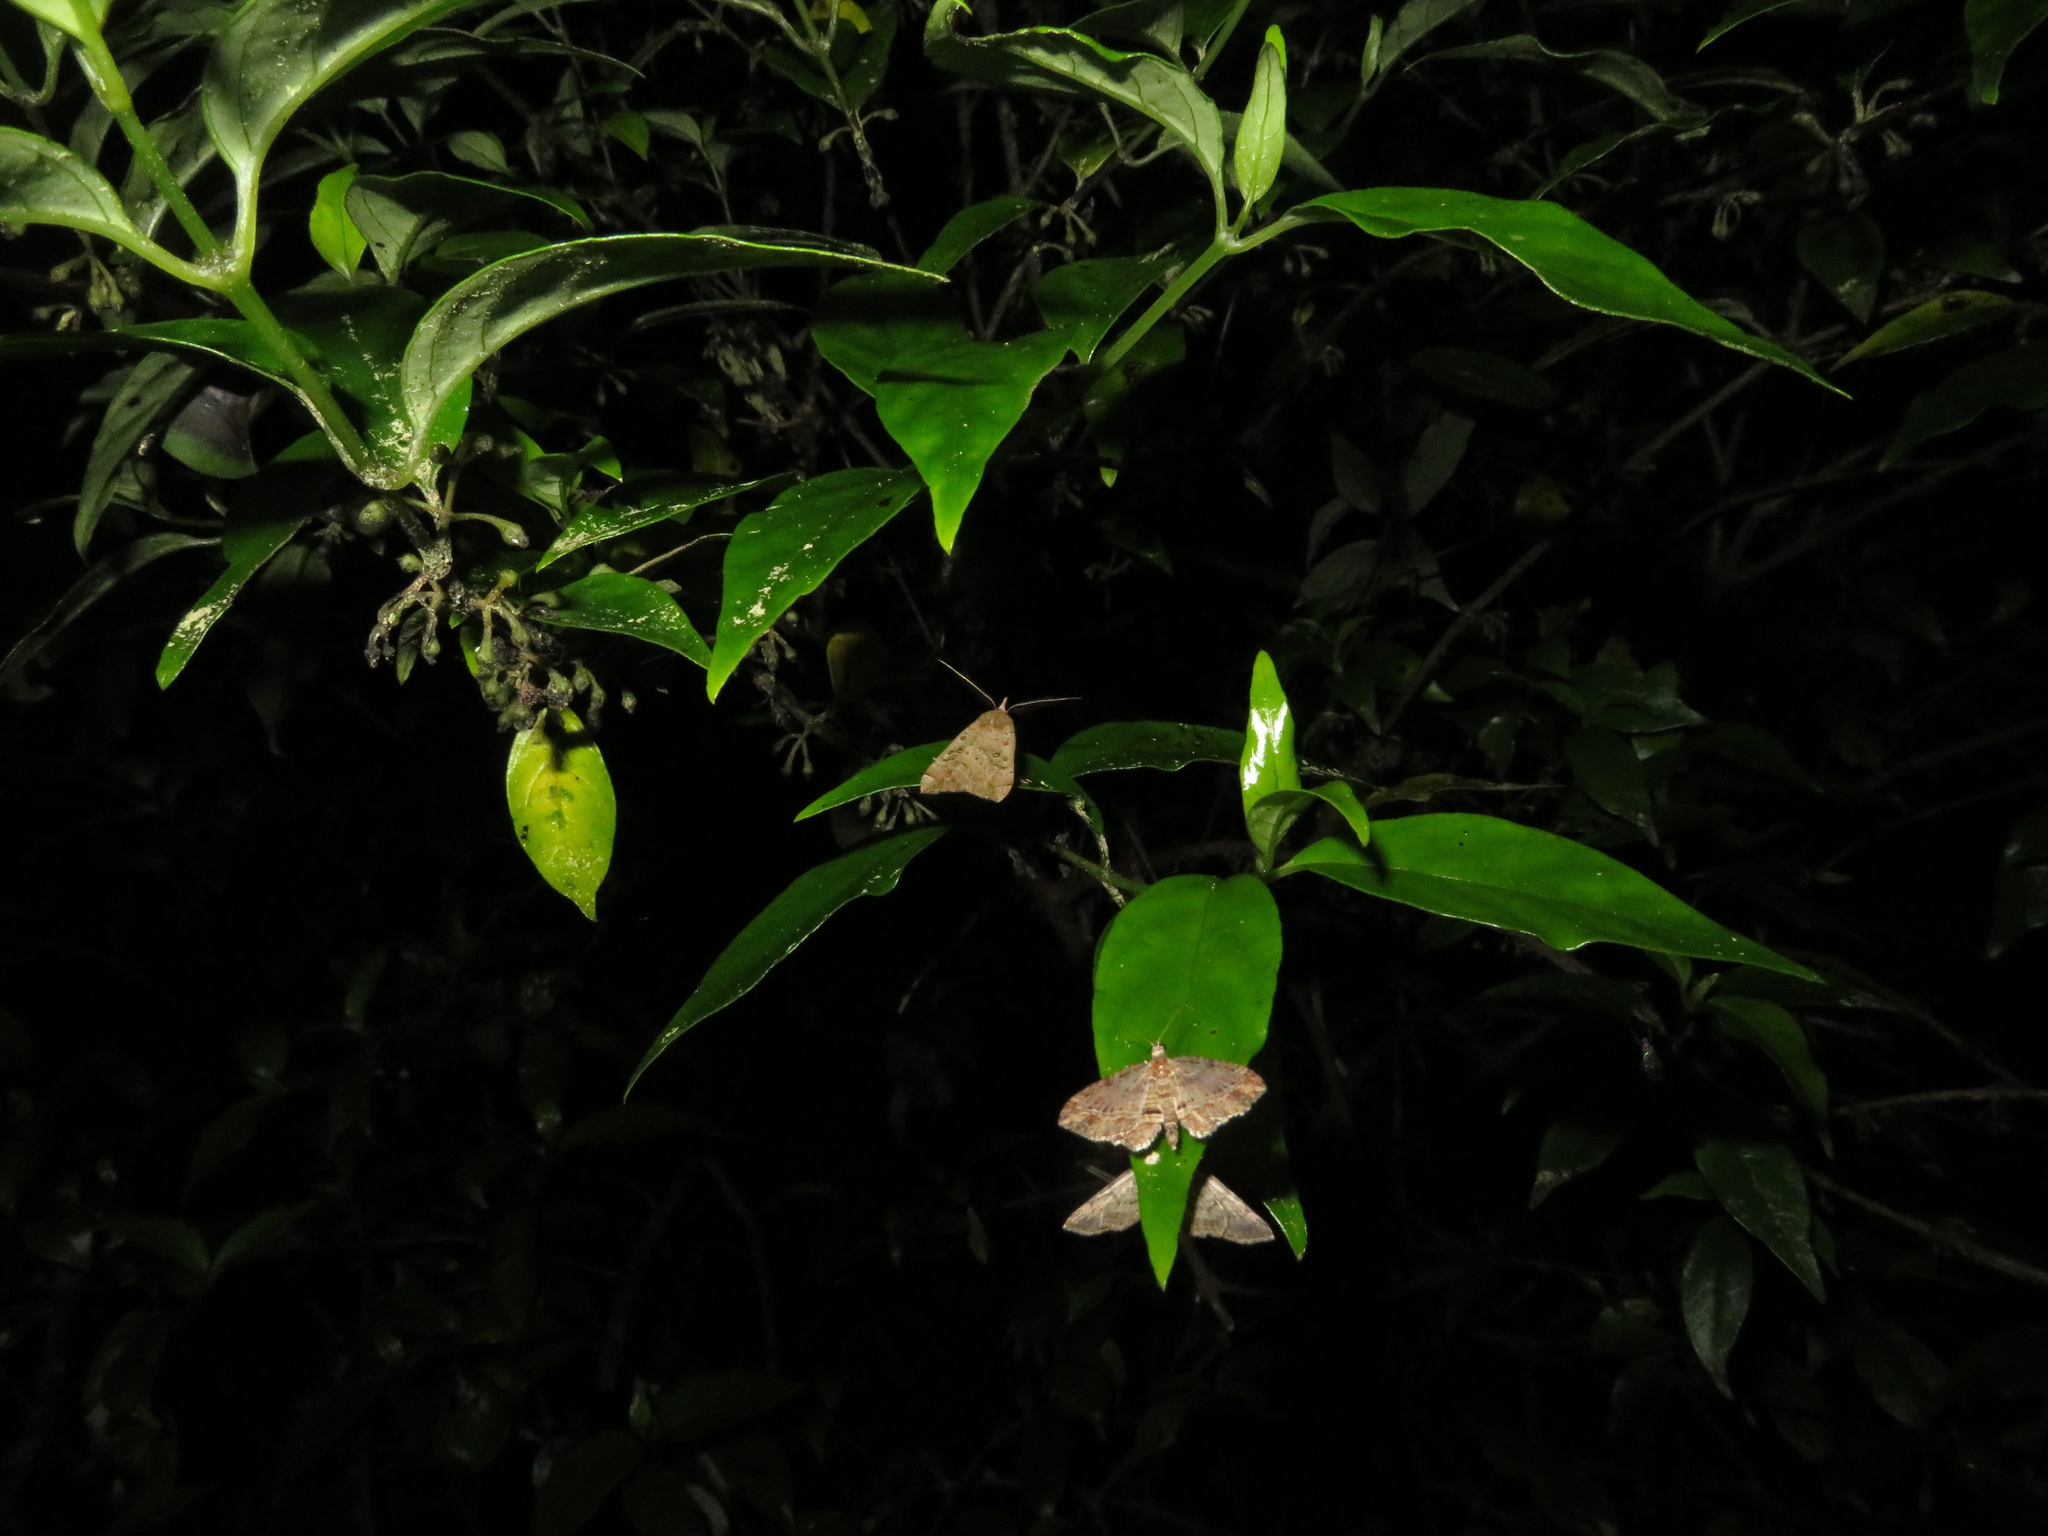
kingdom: Animalia
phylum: Arthropoda
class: Insecta
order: Lepidoptera
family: Erebidae
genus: Rhapsa
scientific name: Rhapsa scotosialis
